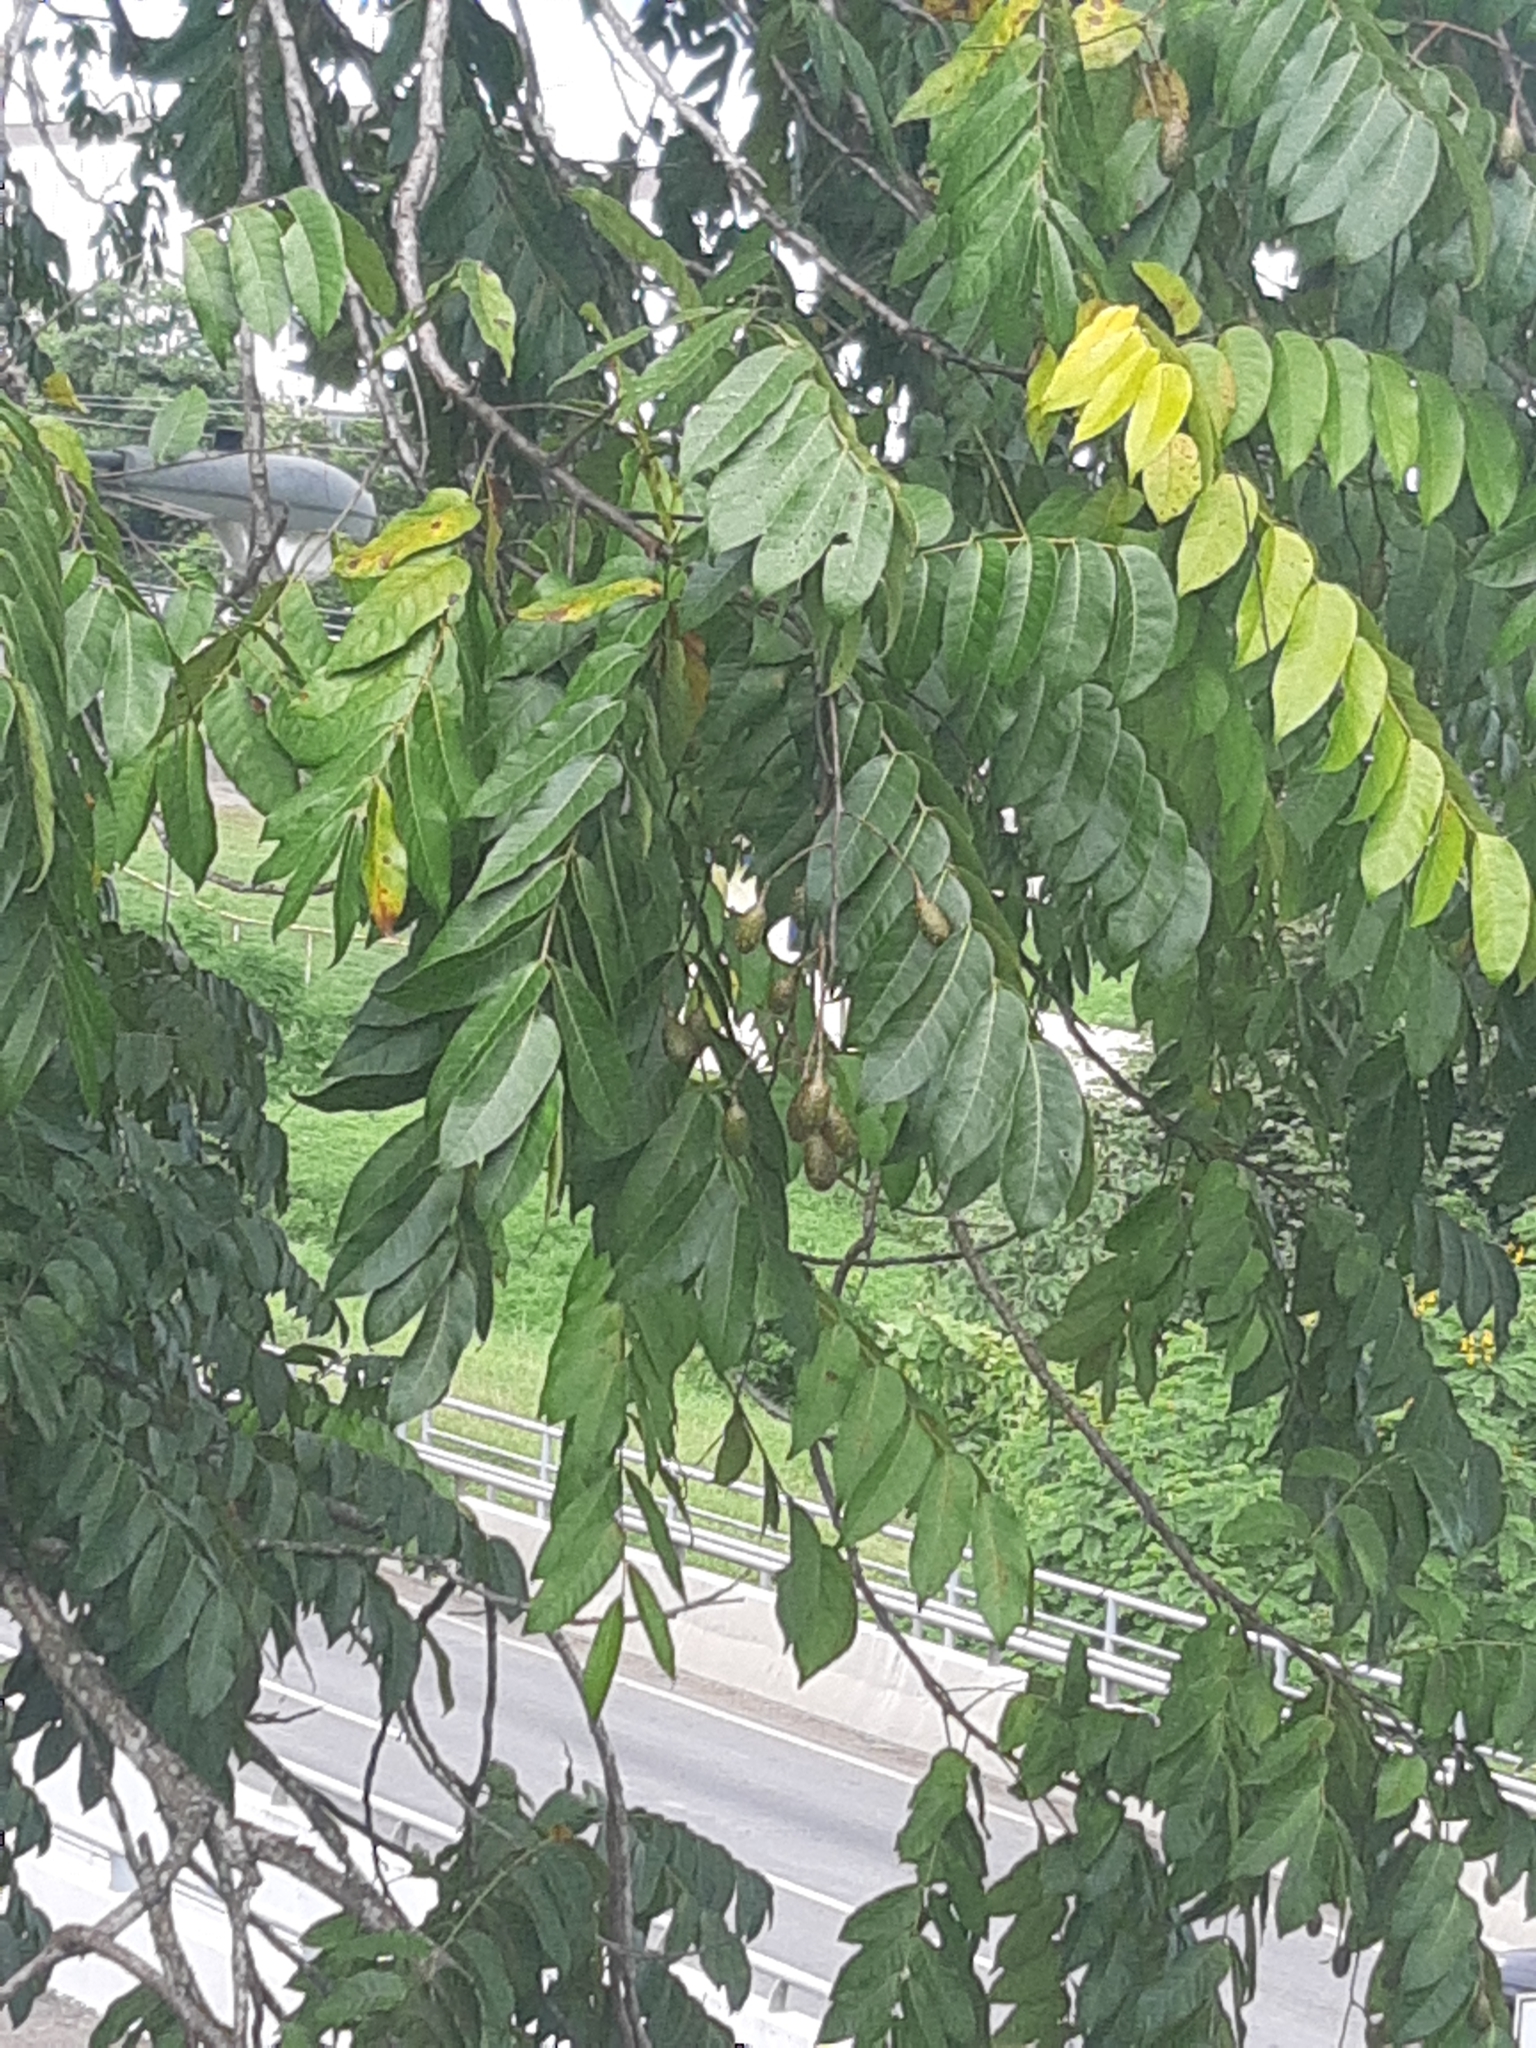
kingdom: Plantae
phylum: Tracheophyta
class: Magnoliopsida
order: Sapindales
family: Meliaceae
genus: Cedrela
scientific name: Cedrela odorata
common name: Red cedar
